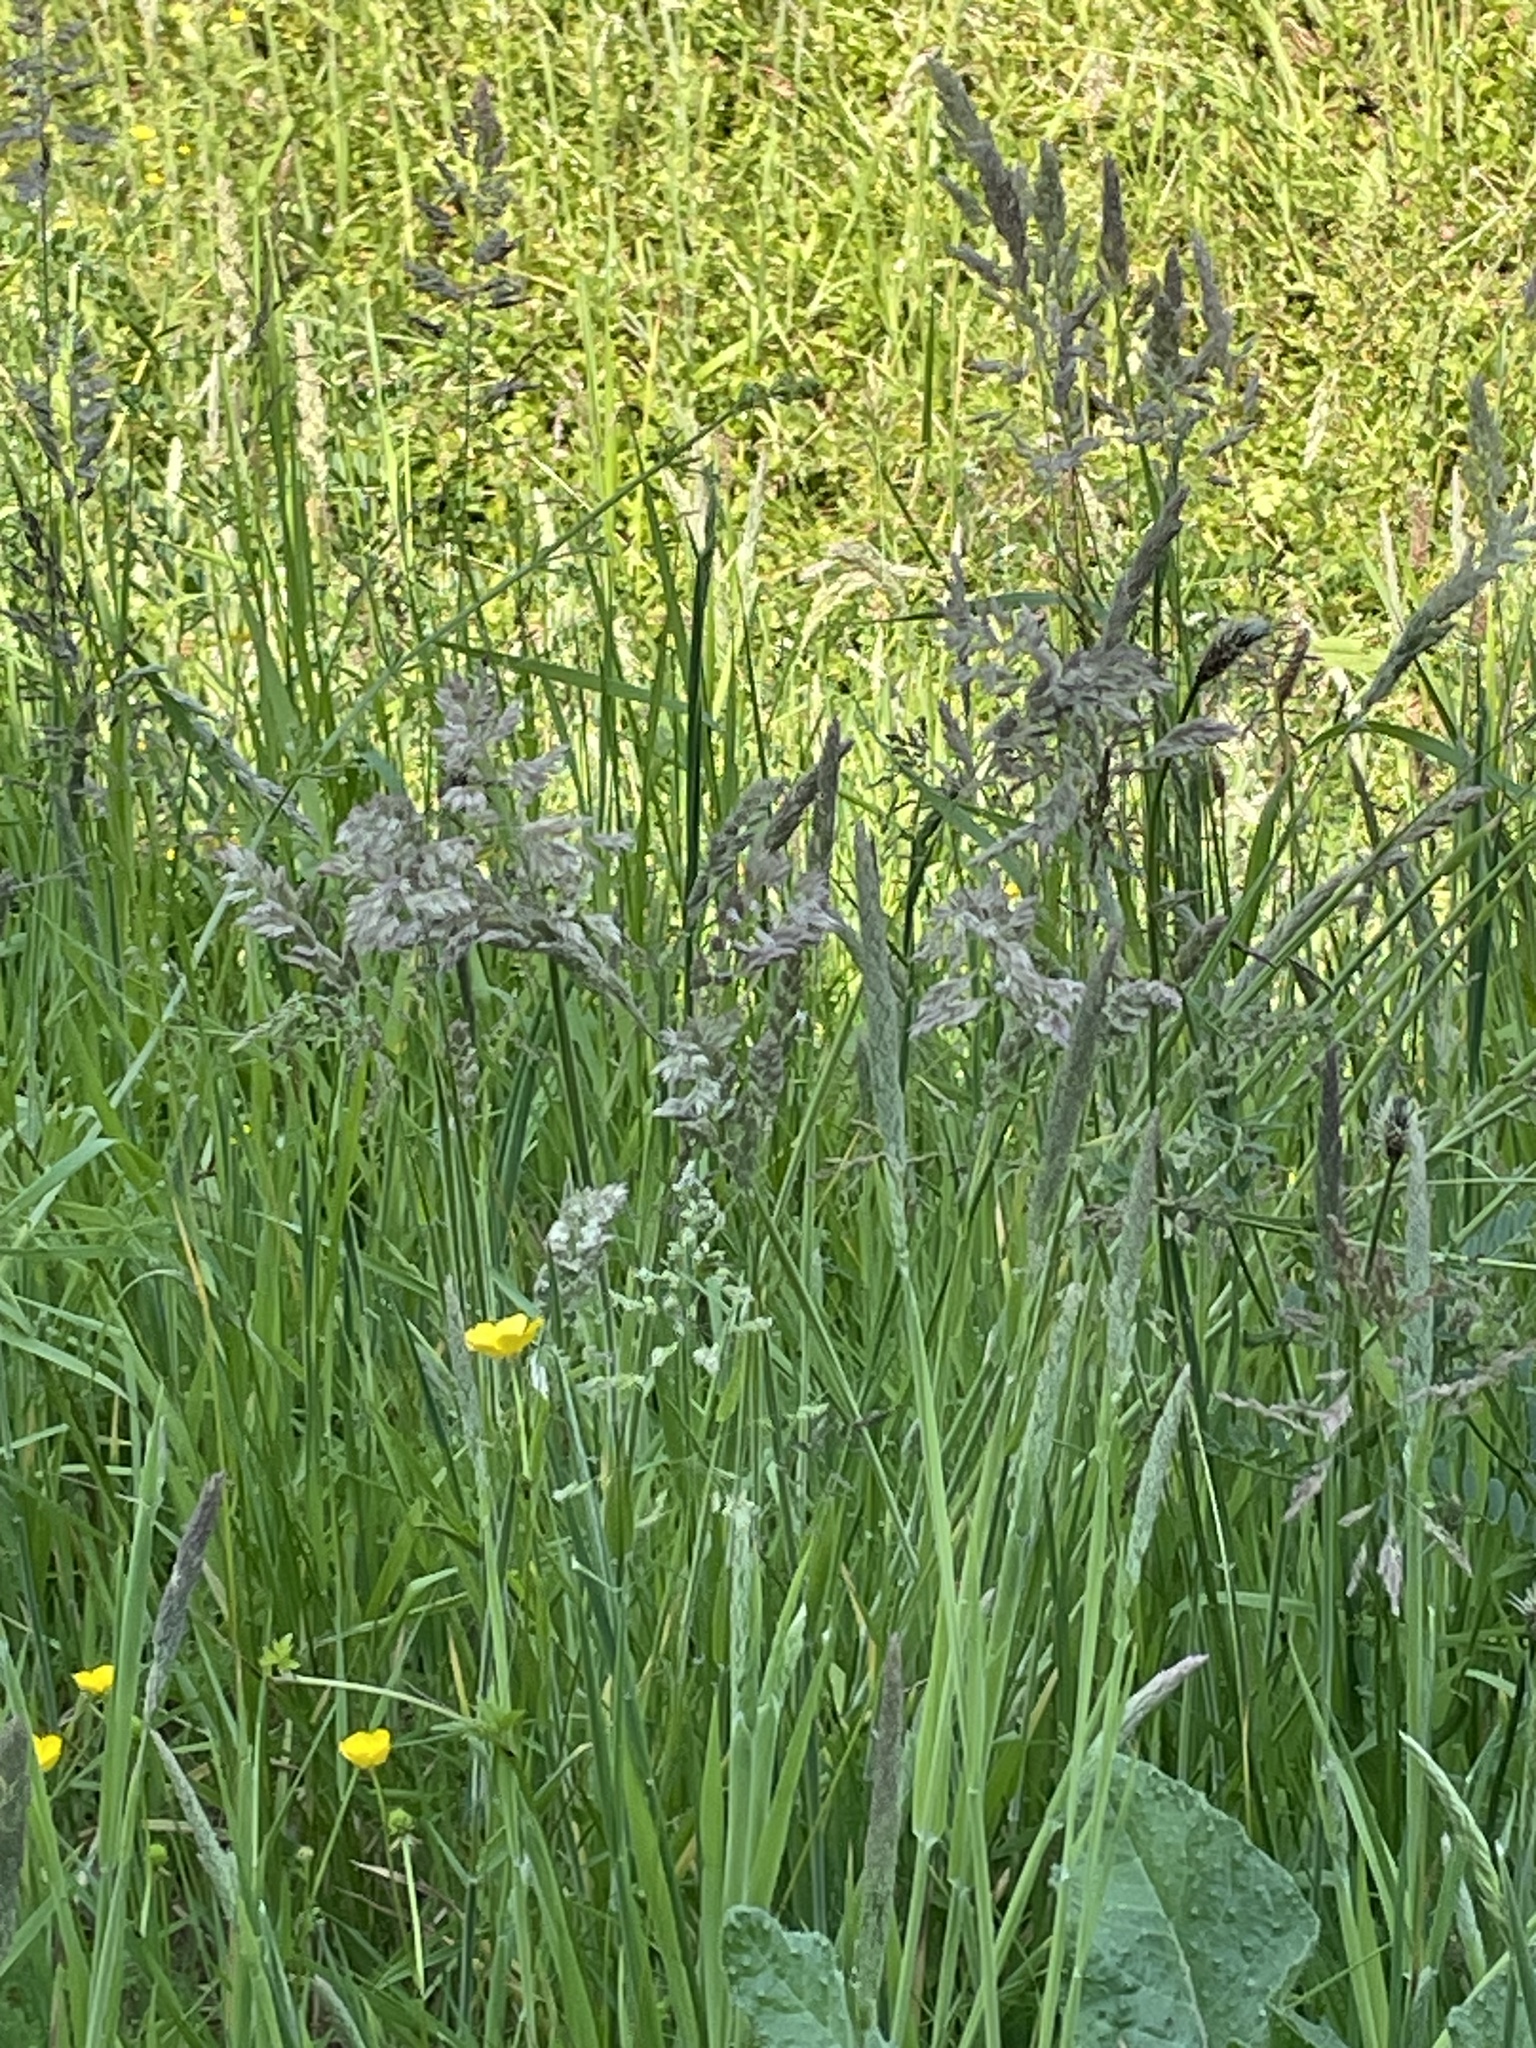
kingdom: Plantae
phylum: Tracheophyta
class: Liliopsida
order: Poales
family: Poaceae
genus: Holcus
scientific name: Holcus lanatus
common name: Yorkshire-fog
